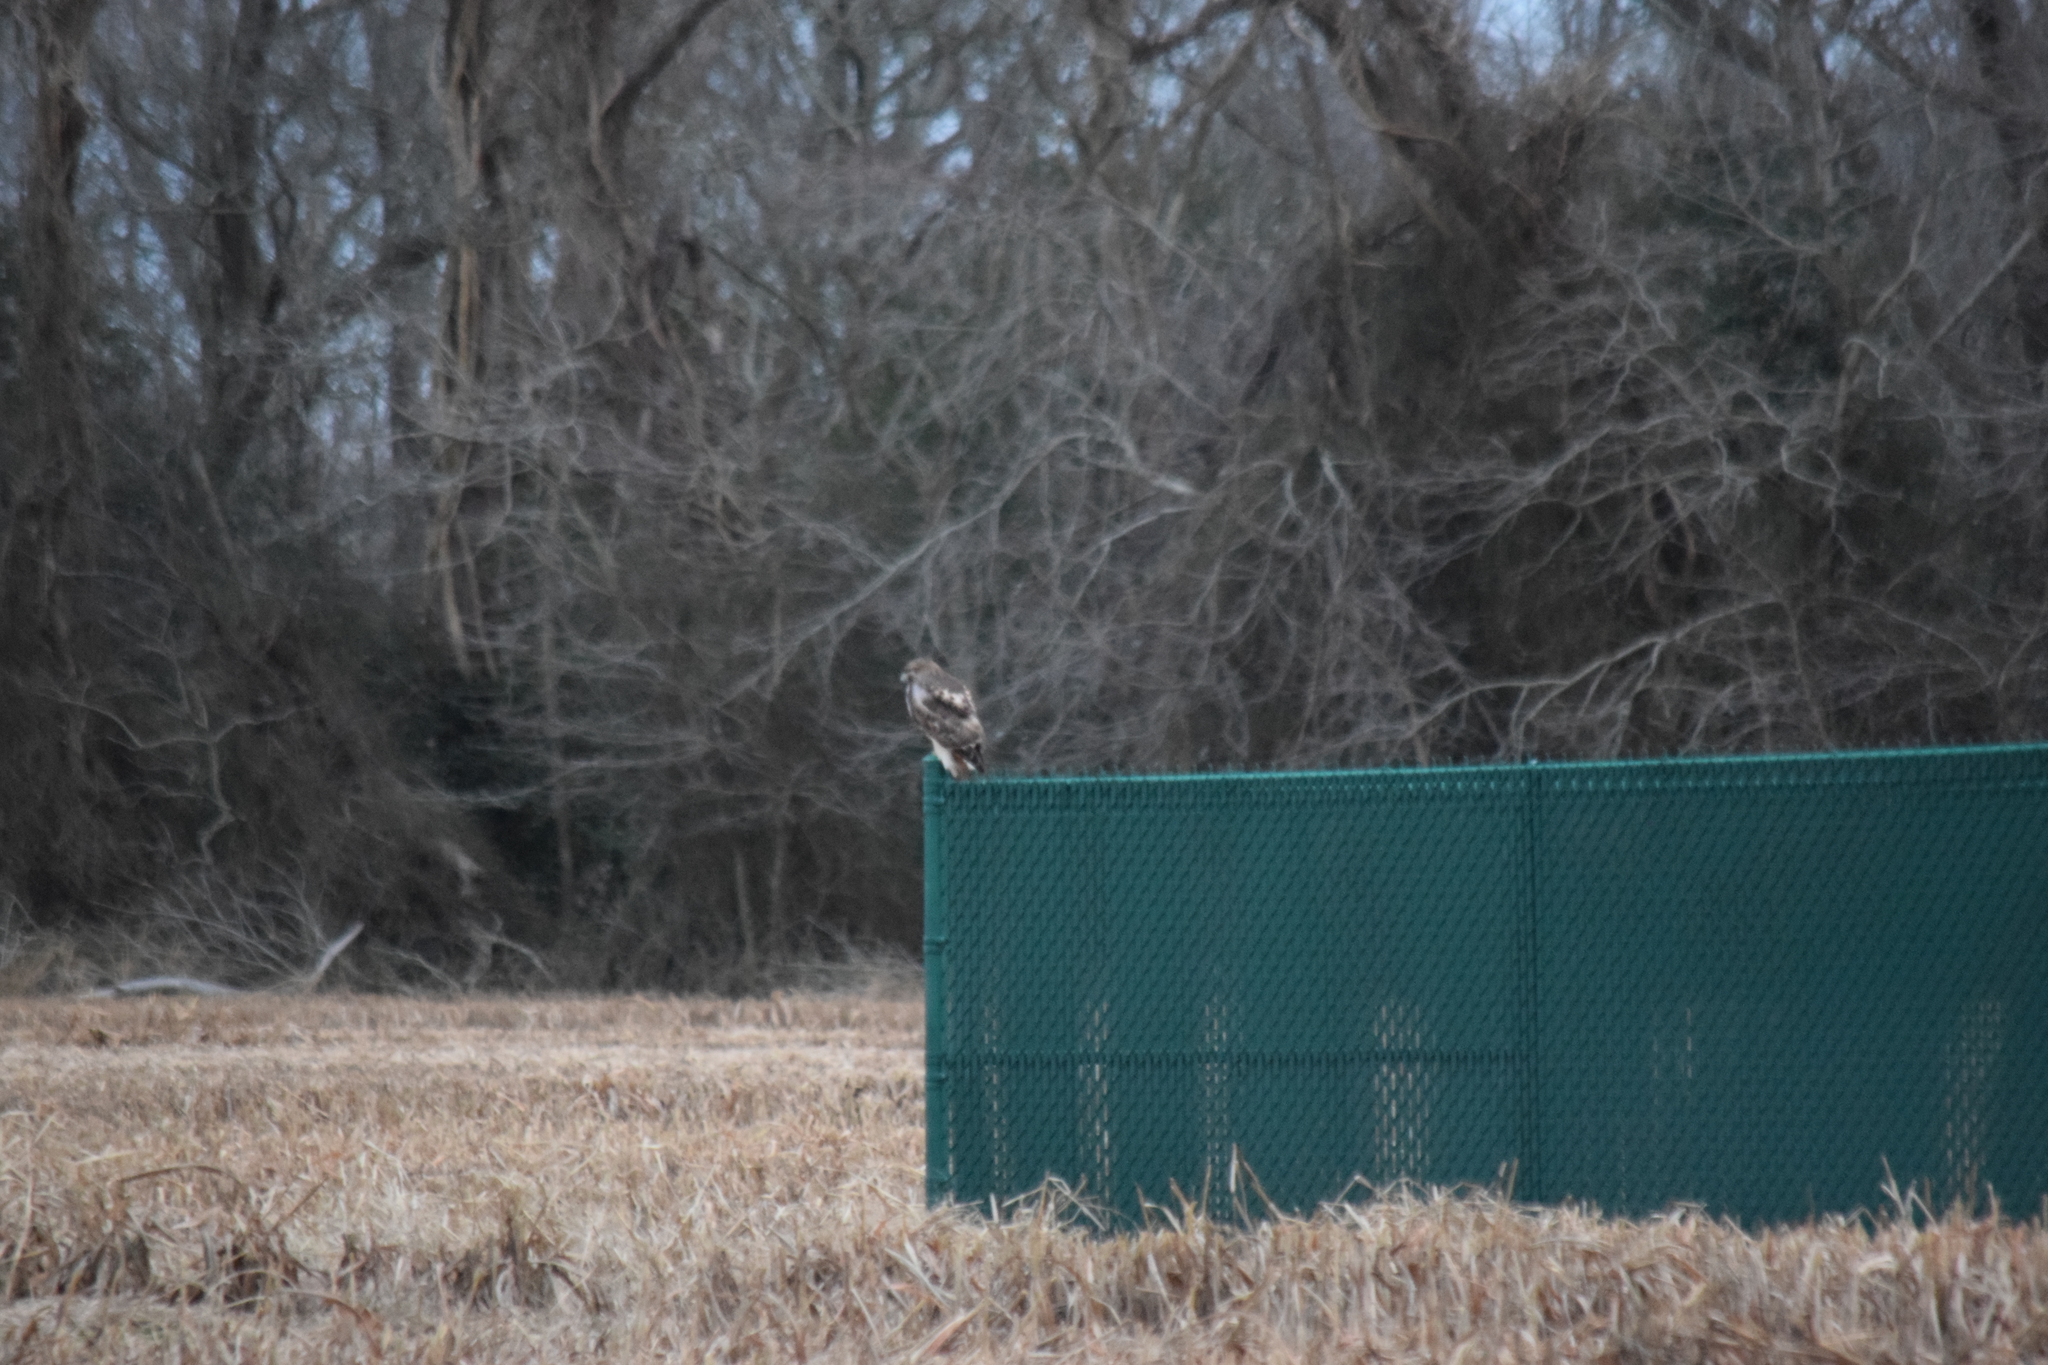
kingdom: Animalia
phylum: Chordata
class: Aves
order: Accipitriformes
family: Accipitridae
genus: Buteo
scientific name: Buteo jamaicensis
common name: Red-tailed hawk
